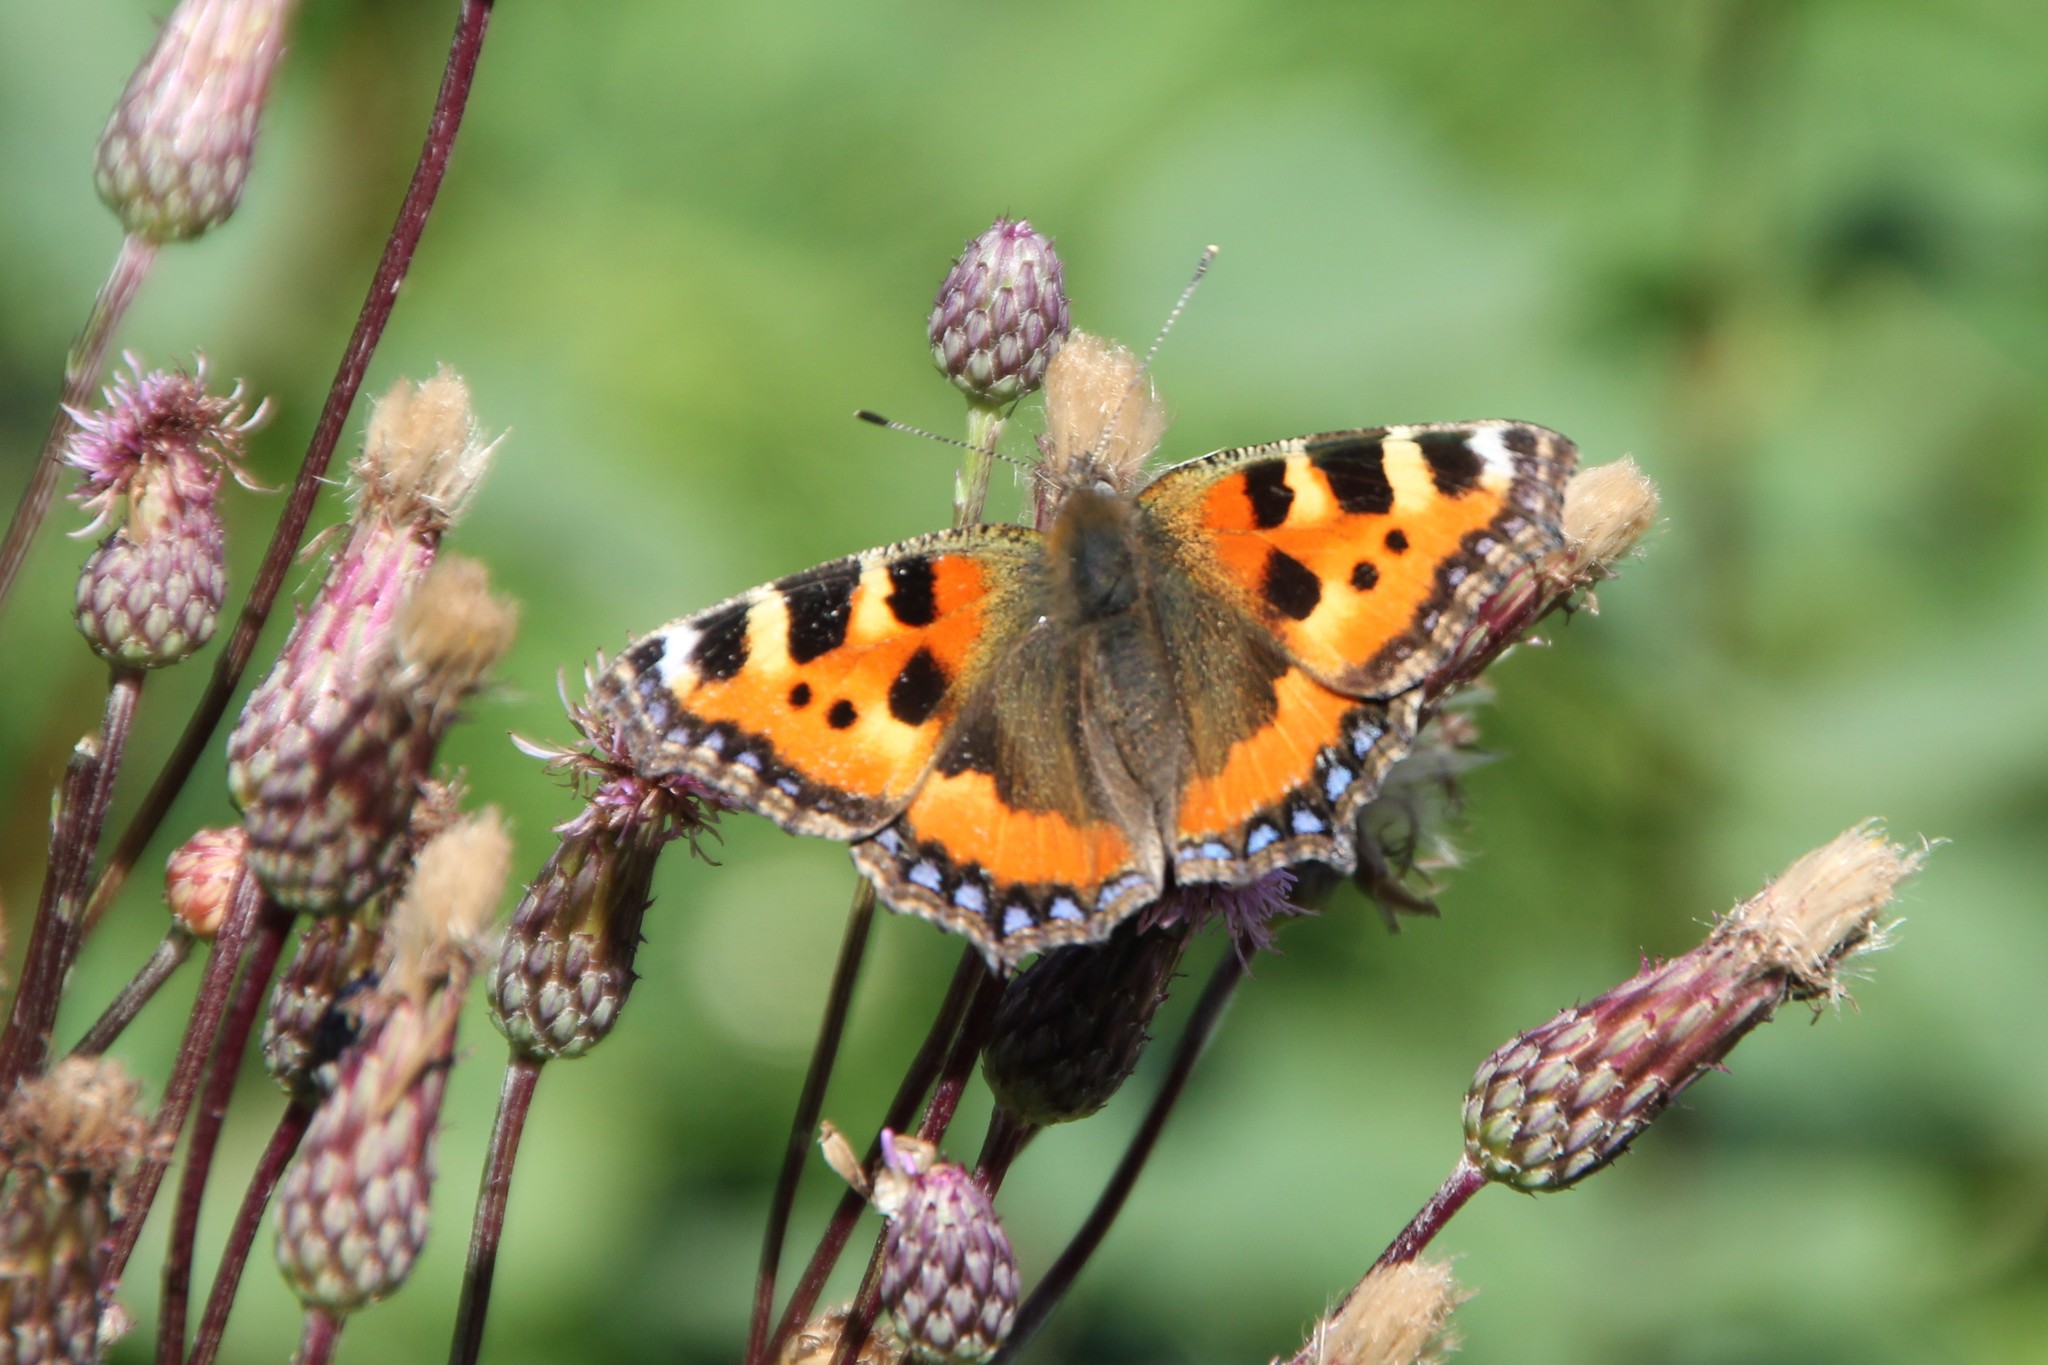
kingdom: Animalia
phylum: Arthropoda
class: Insecta
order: Lepidoptera
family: Nymphalidae
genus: Aglais
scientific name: Aglais urticae
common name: Small tortoiseshell
